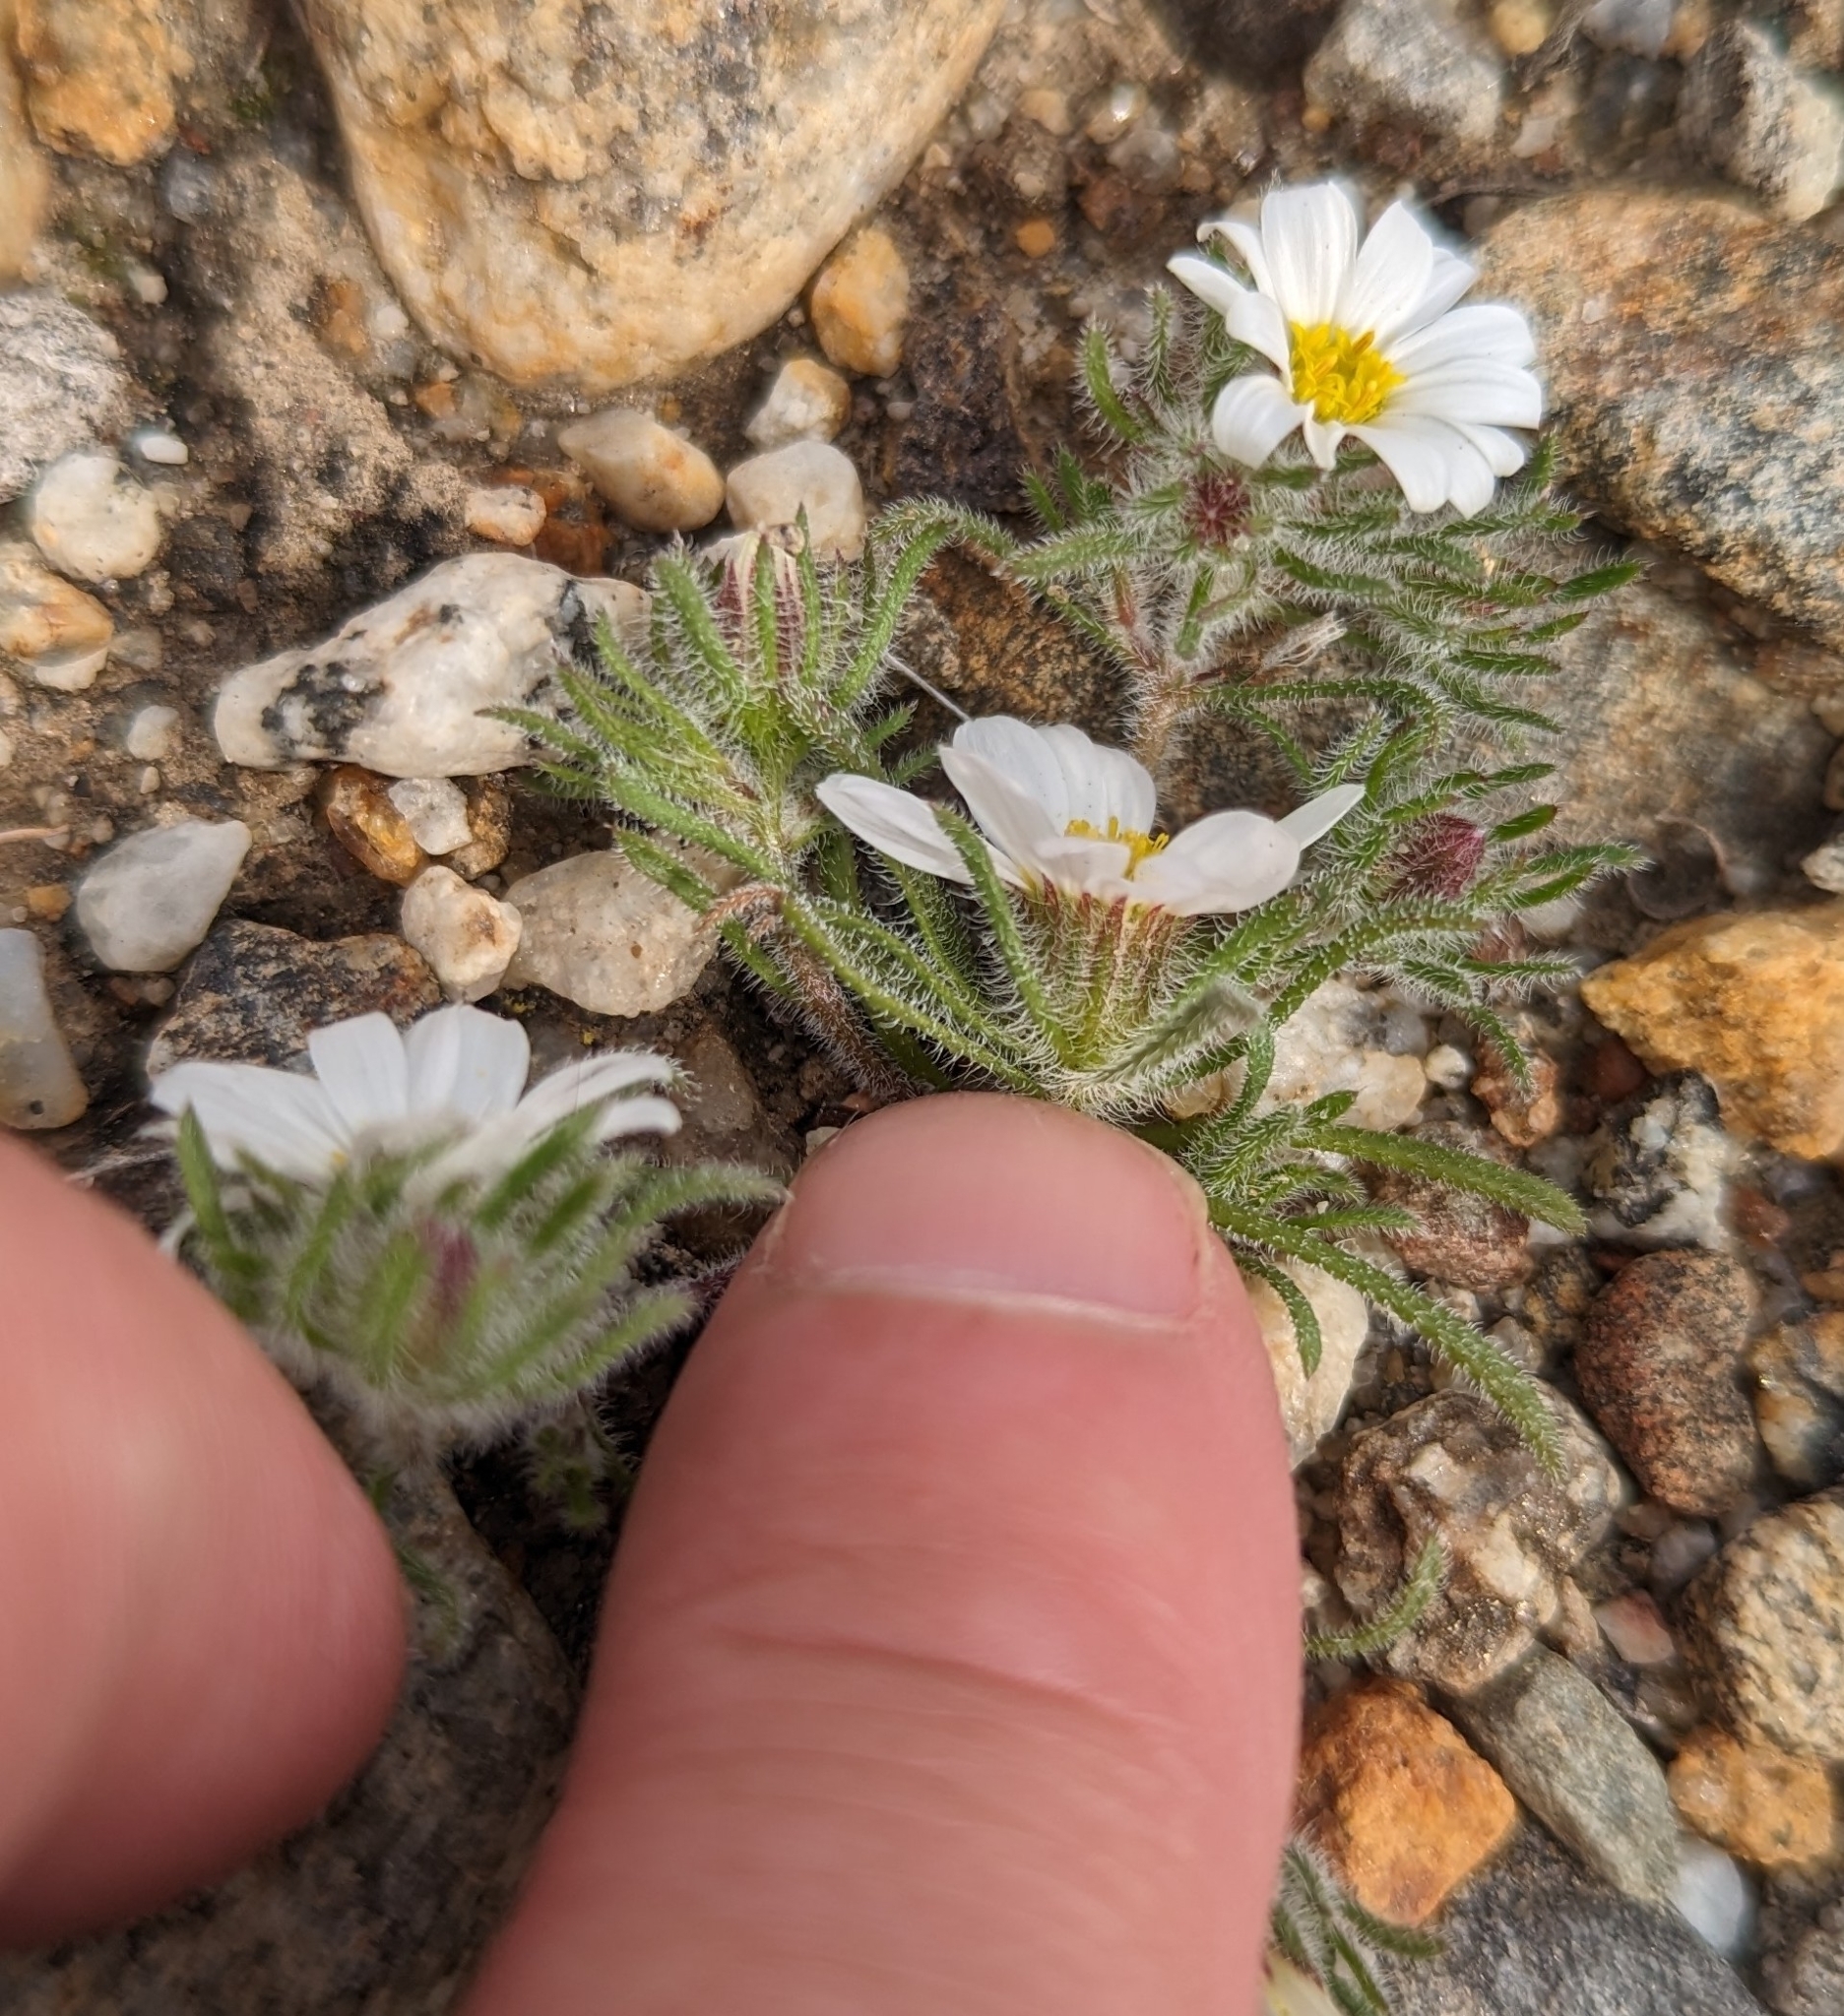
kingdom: Plantae
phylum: Tracheophyta
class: Magnoliopsida
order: Asterales
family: Asteraceae
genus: Monoptilon
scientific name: Monoptilon bellioides
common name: Bristly desertstar
